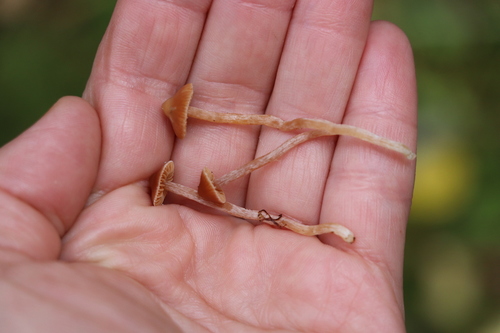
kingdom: Fungi
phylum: Basidiomycota
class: Agaricomycetes
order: Agaricales
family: Cortinariaceae
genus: Cortinarius
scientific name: Cortinarius acutus
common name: Peaked webcap
